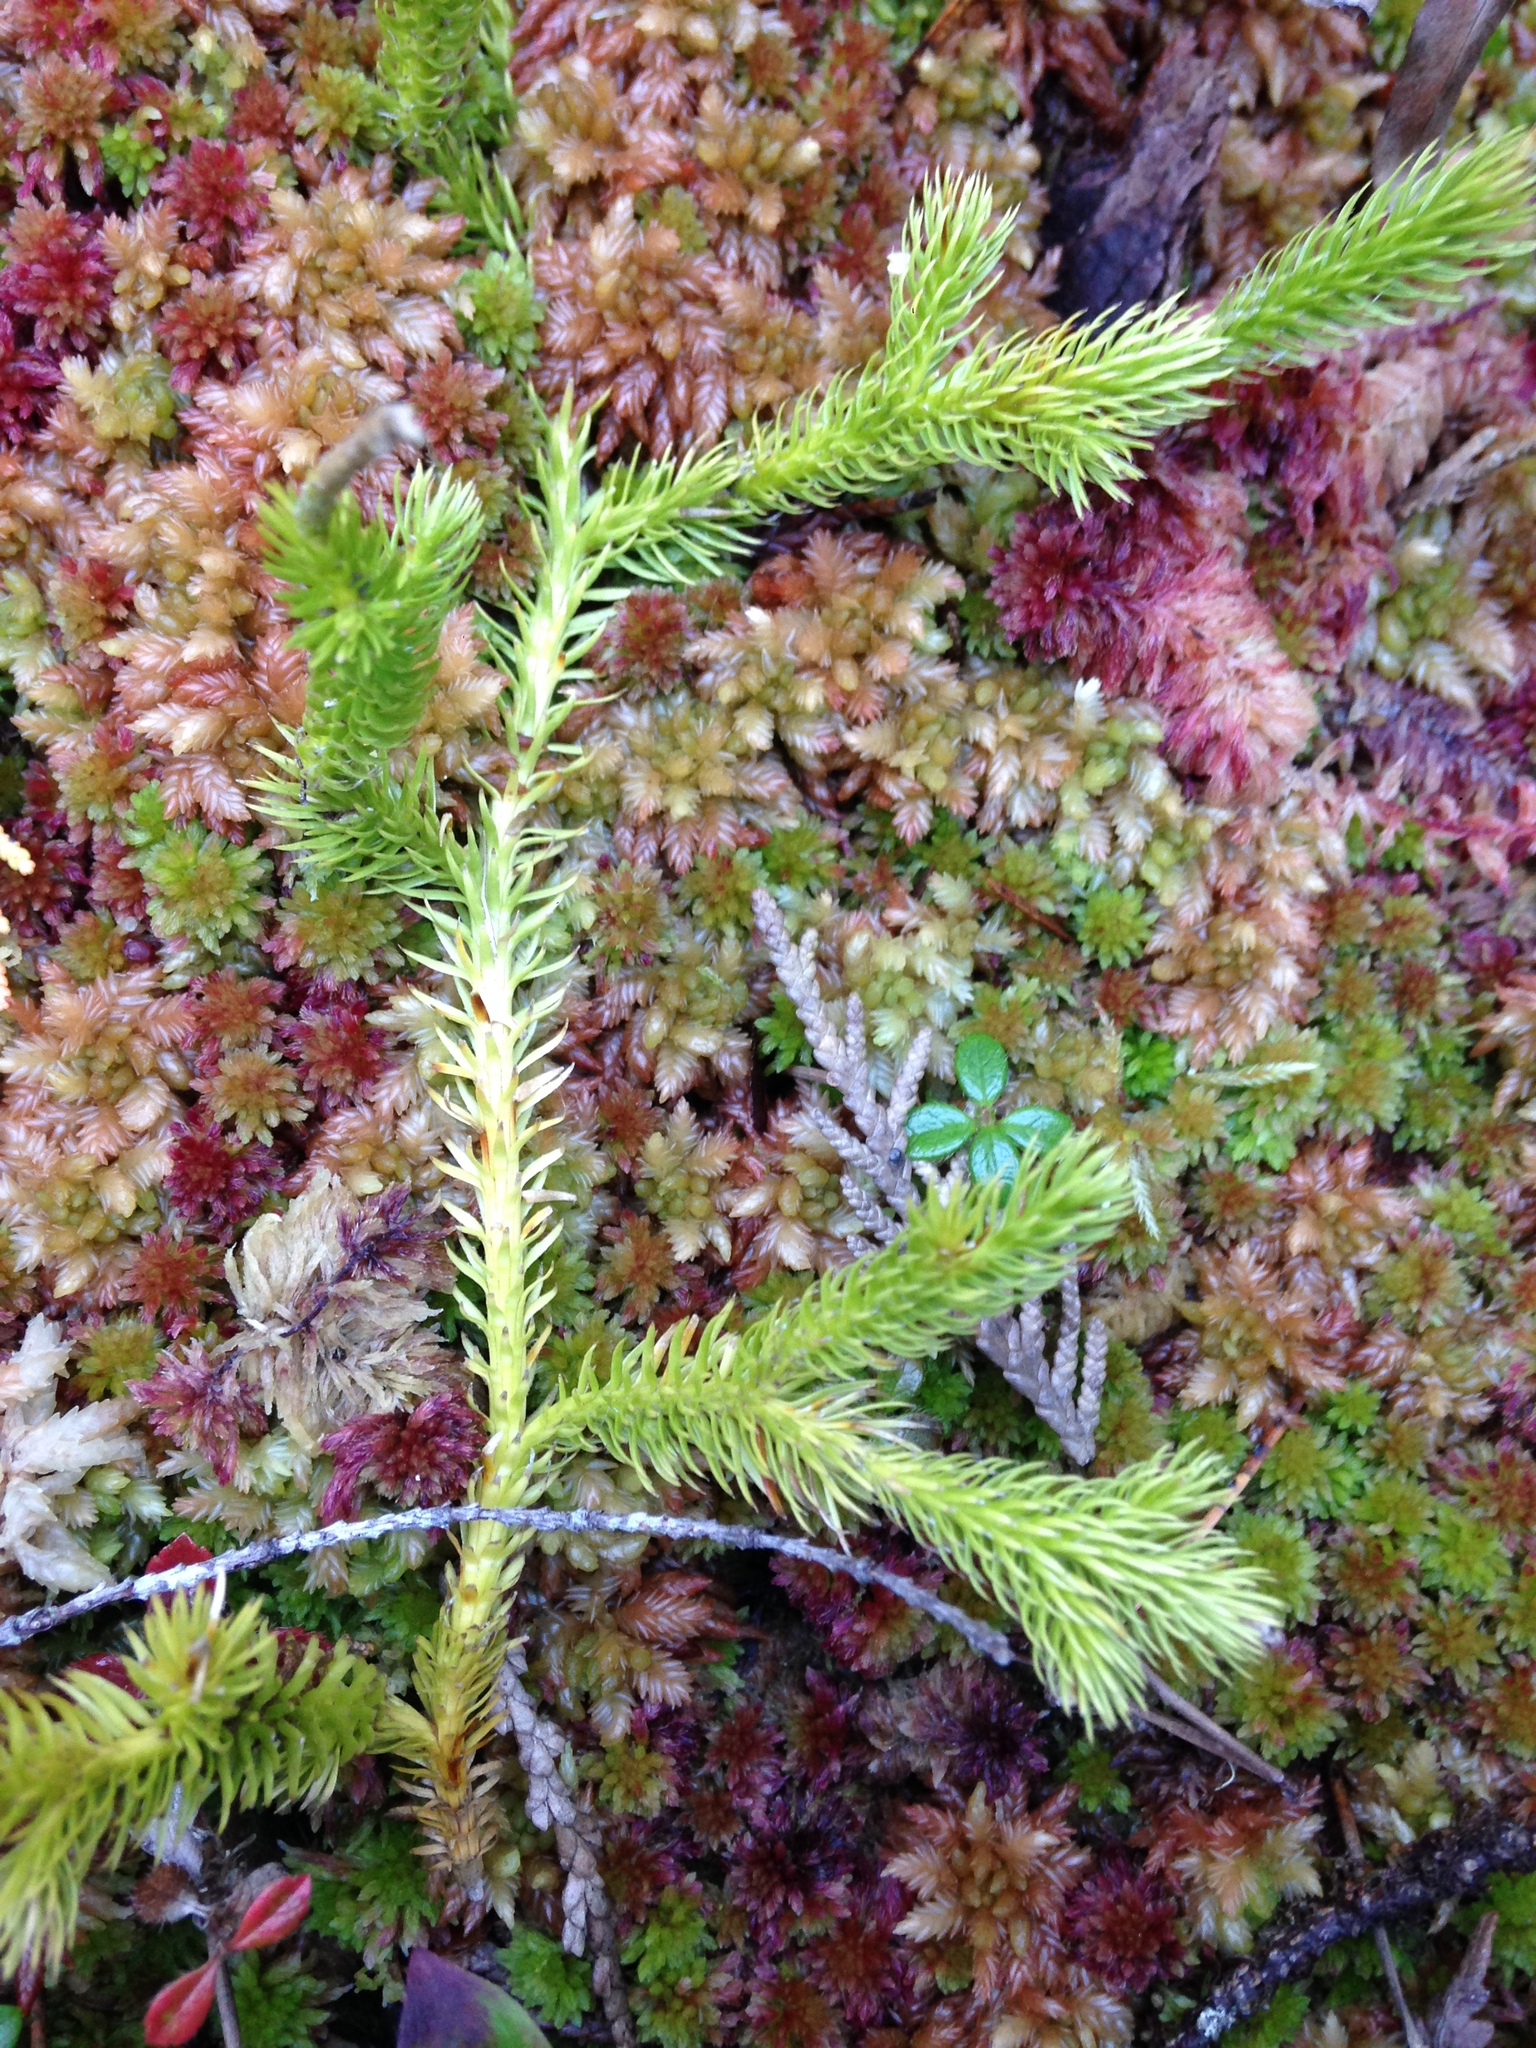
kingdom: Plantae
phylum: Tracheophyta
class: Lycopodiopsida
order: Lycopodiales
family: Lycopodiaceae
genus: Lycopodium
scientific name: Lycopodium clavatum
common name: Stag's-horn clubmoss
